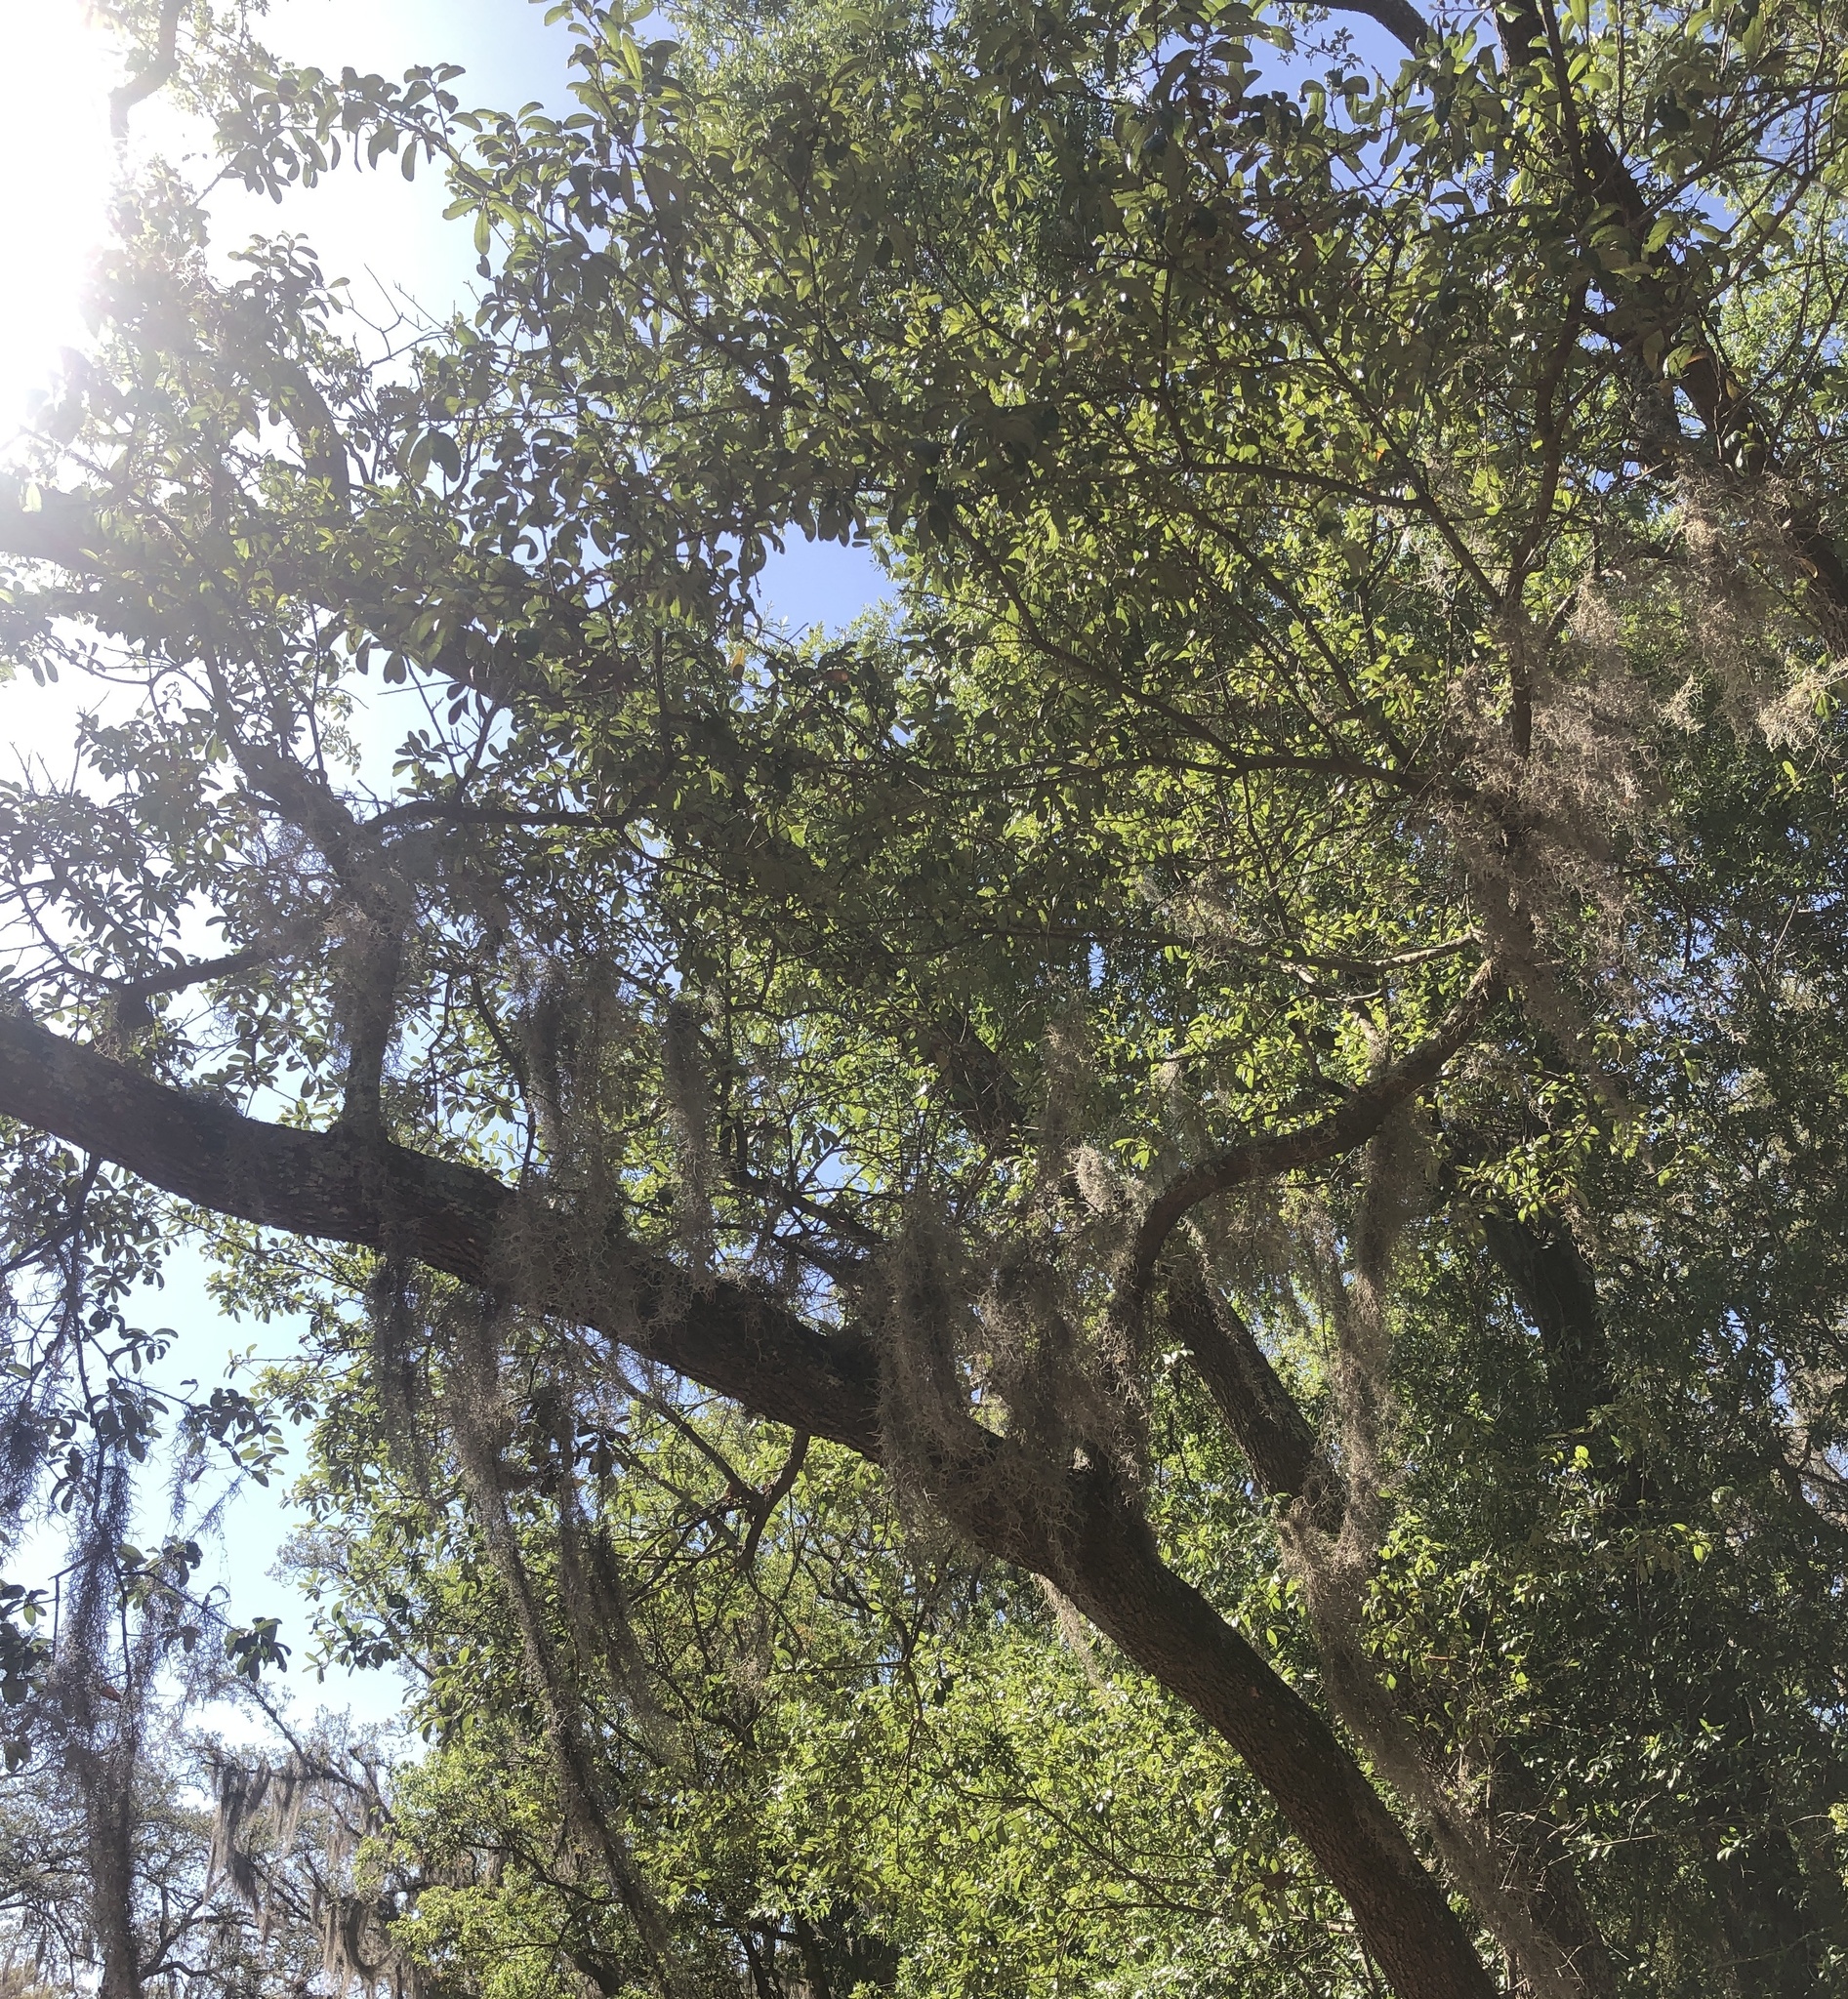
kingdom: Plantae
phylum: Tracheophyta
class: Liliopsida
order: Poales
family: Bromeliaceae
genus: Tillandsia
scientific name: Tillandsia usneoides
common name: Spanish moss
